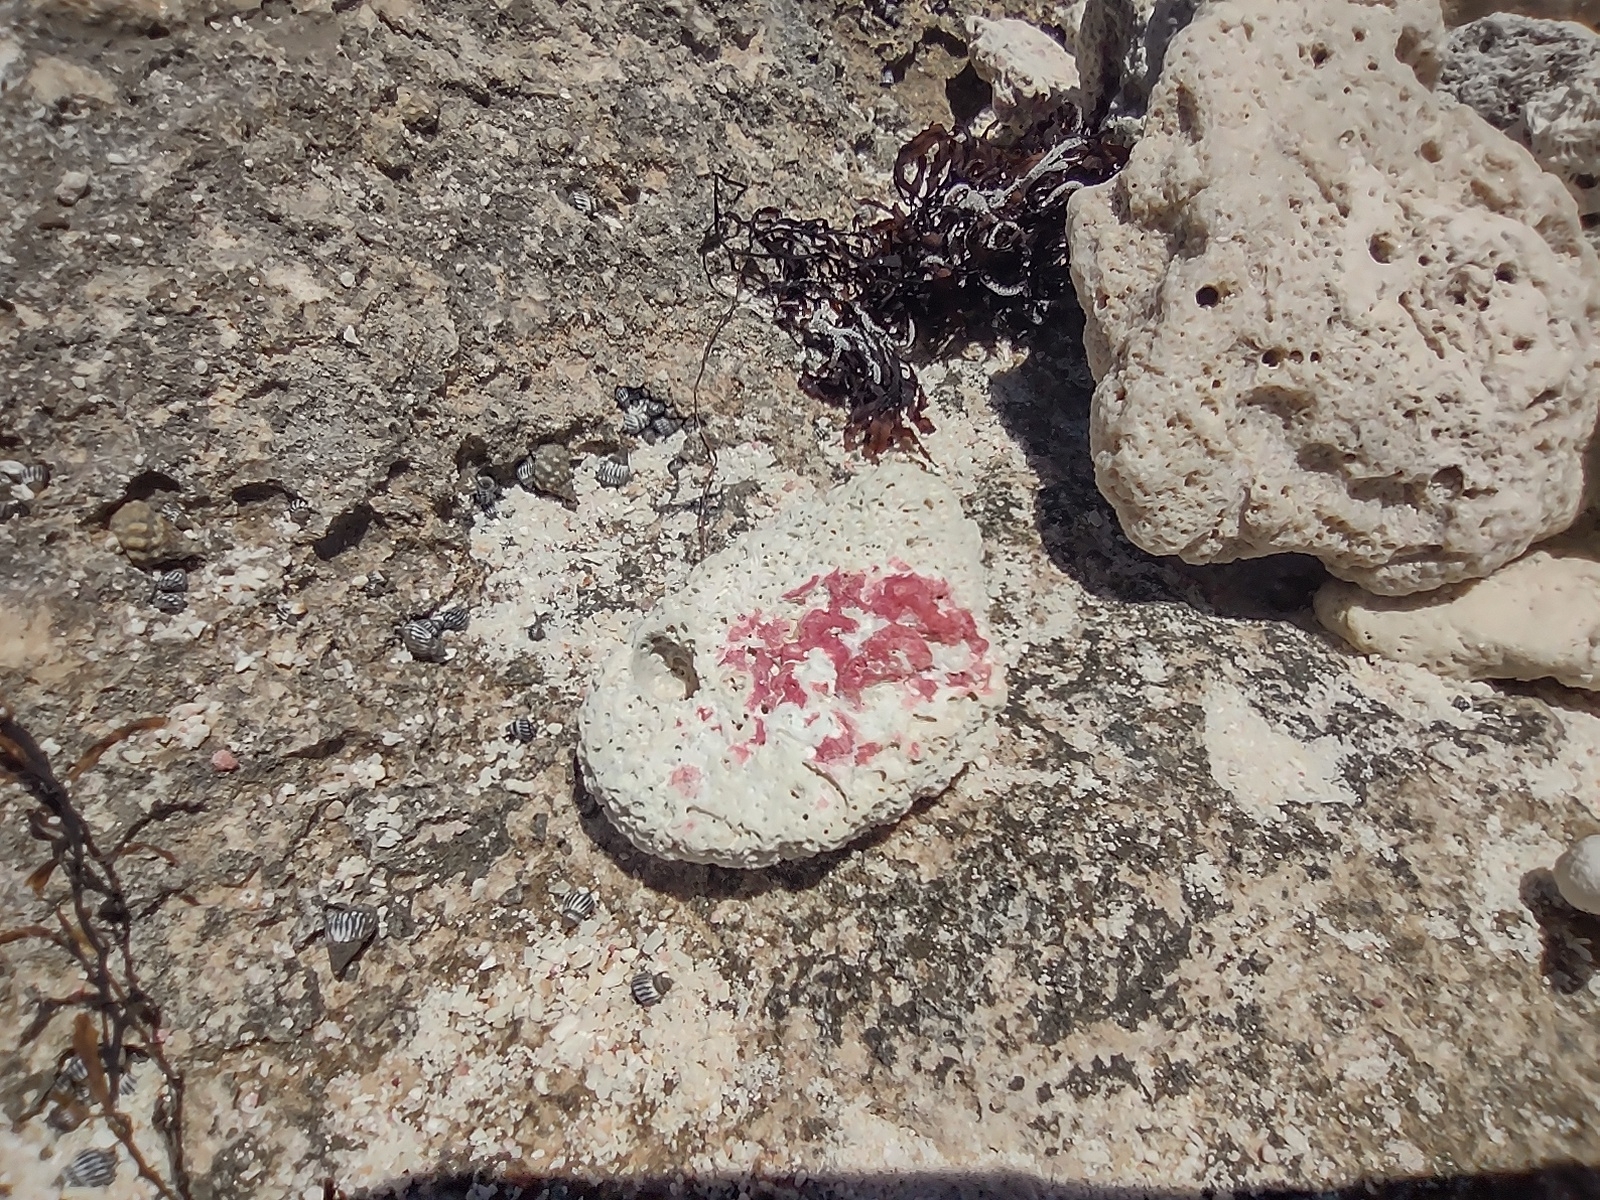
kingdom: Chromista
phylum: Foraminifera
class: Globothalamea
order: Rotaliida
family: Homotrematidae
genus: Homotrema
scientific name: Homotrema rubrum
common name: Red foram
